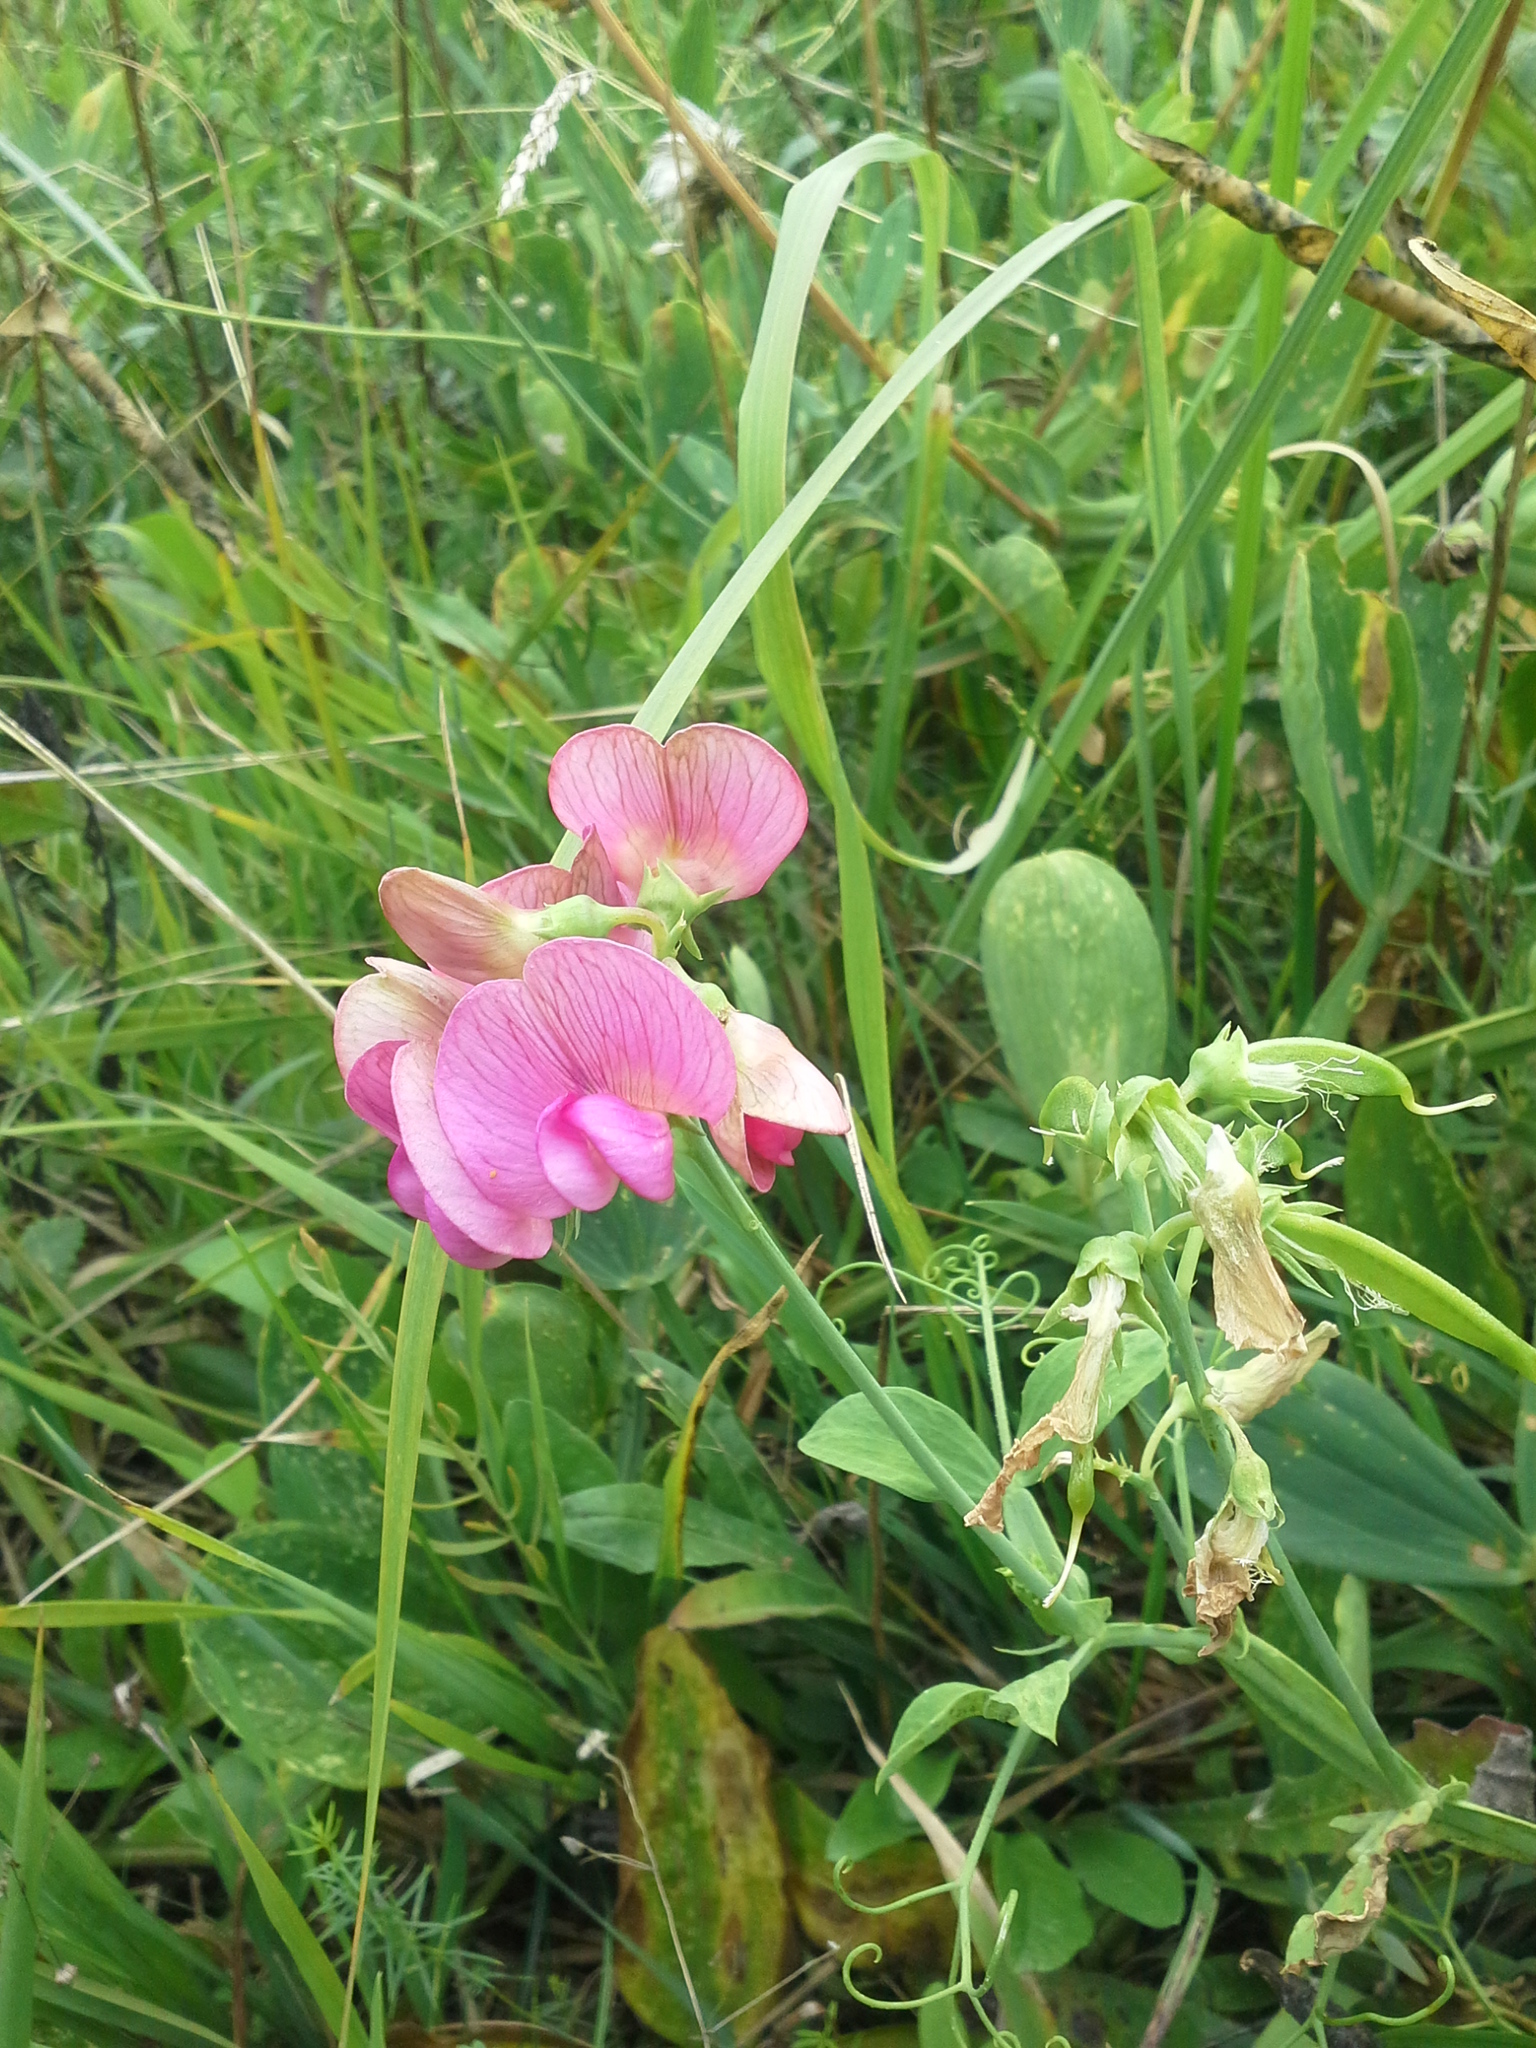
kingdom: Plantae
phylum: Tracheophyta
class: Magnoliopsida
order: Fabales
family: Fabaceae
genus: Lathyrus
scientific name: Lathyrus latifolius
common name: Perennial pea
